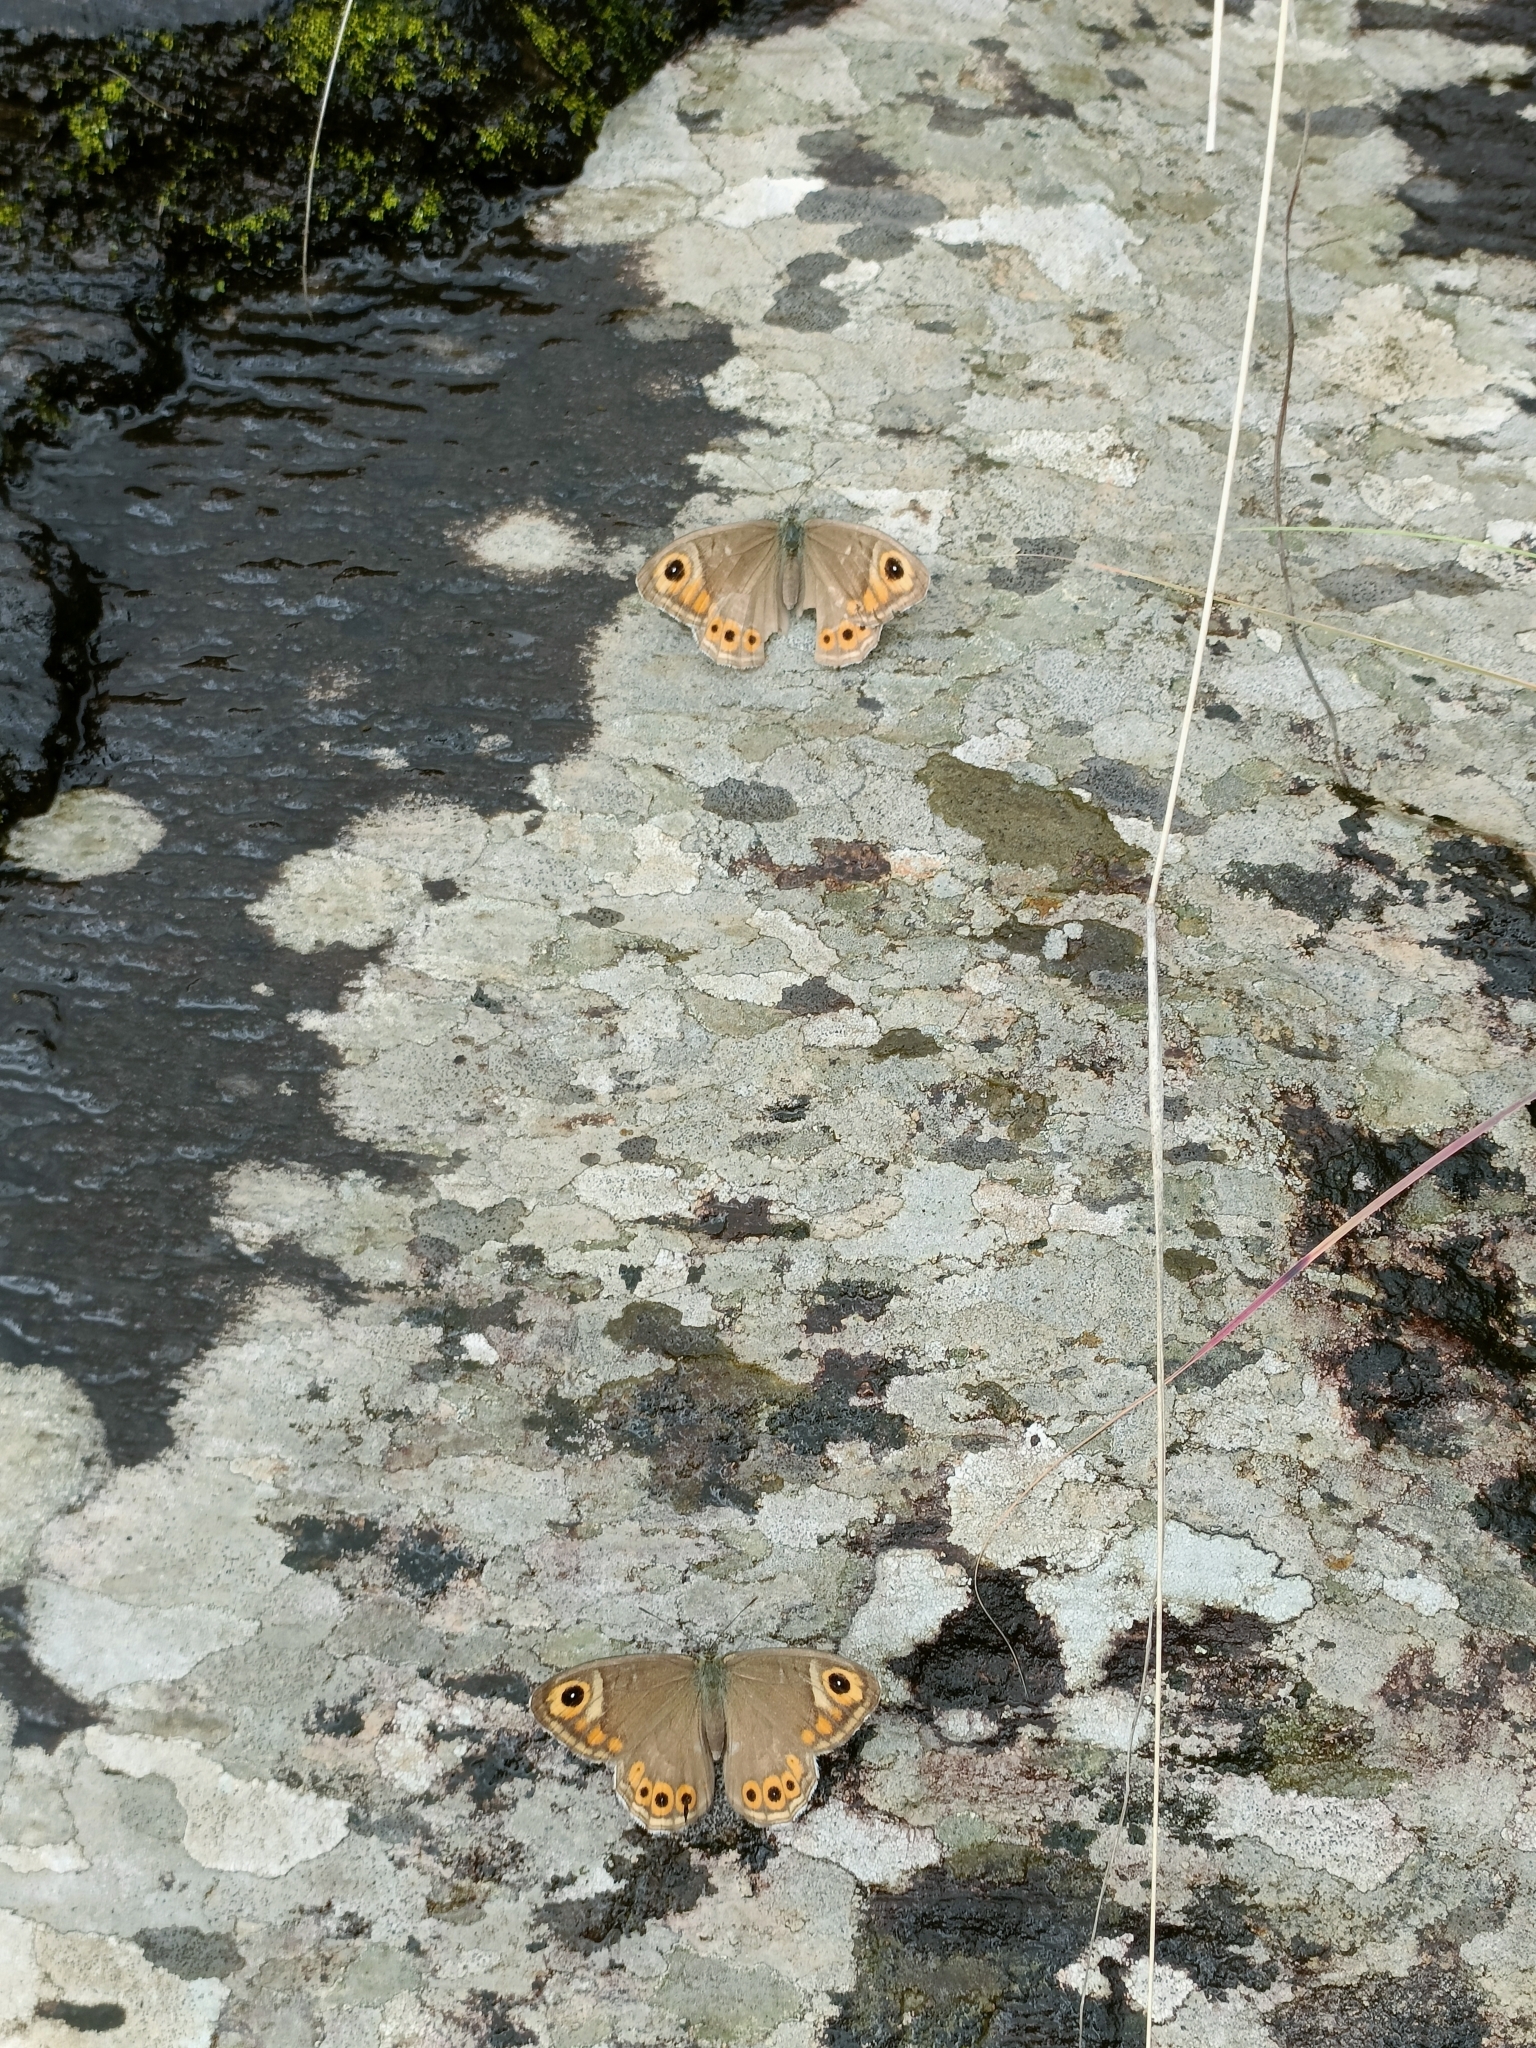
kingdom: Animalia
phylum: Arthropoda
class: Insecta
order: Lepidoptera
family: Nymphalidae
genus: Pararge
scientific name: Pararge Lasiommata schakra
